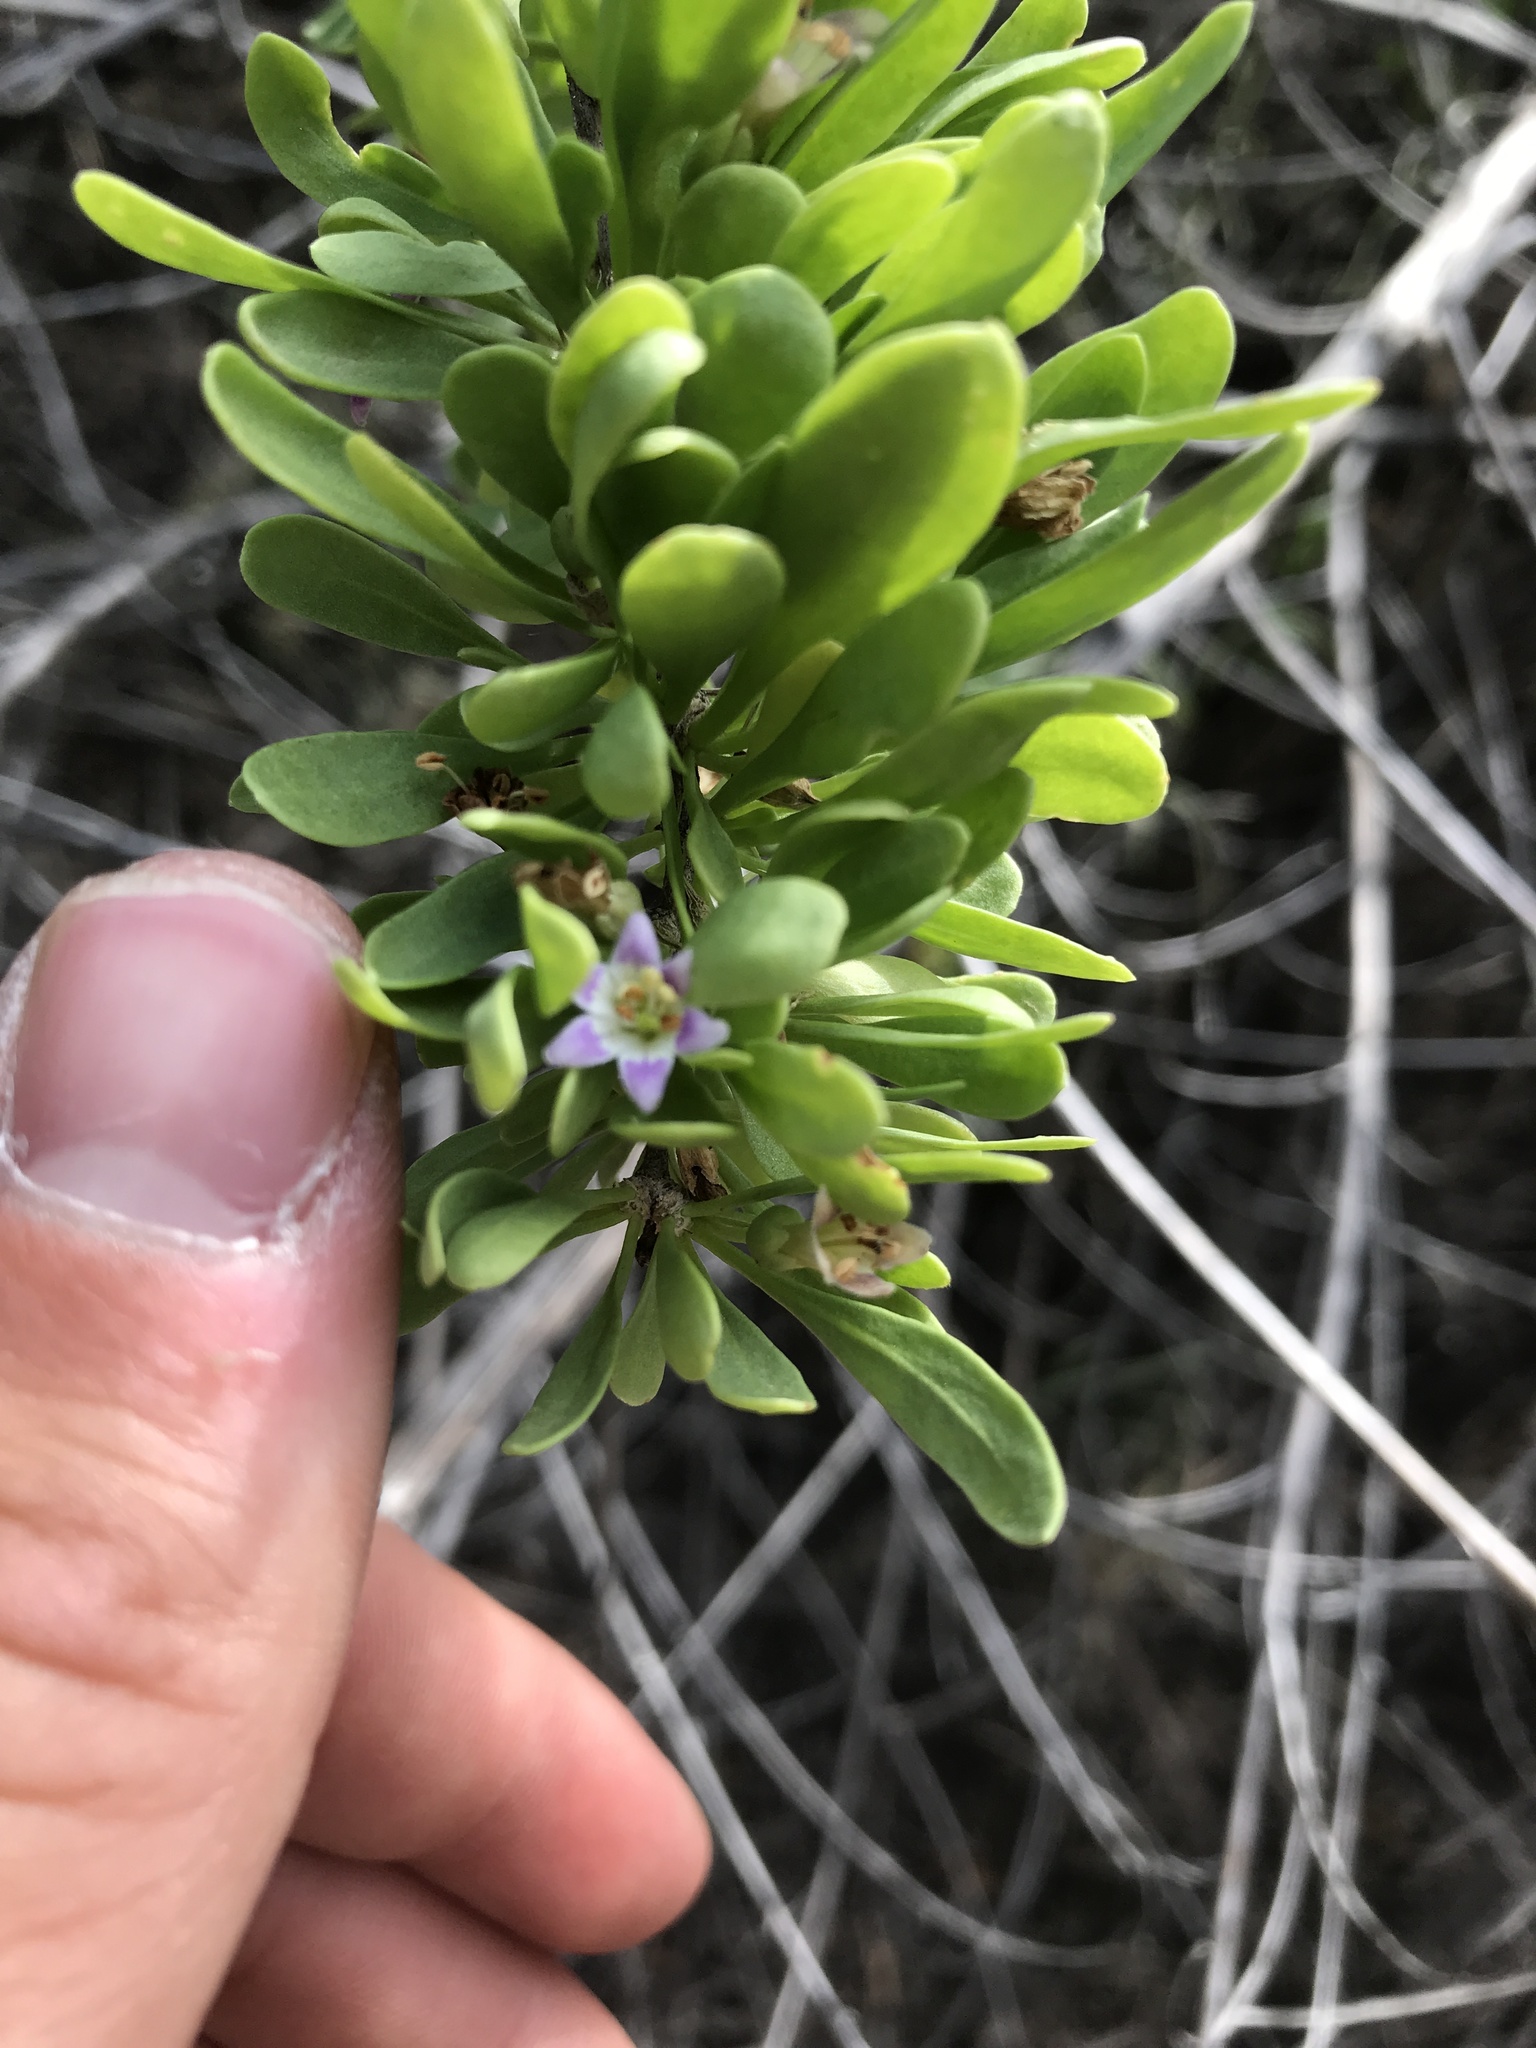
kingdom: Plantae
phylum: Tracheophyta
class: Magnoliopsida
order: Solanales
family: Solanaceae
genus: Lycium
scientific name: Lycium torreyi
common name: Torrey's lycium
